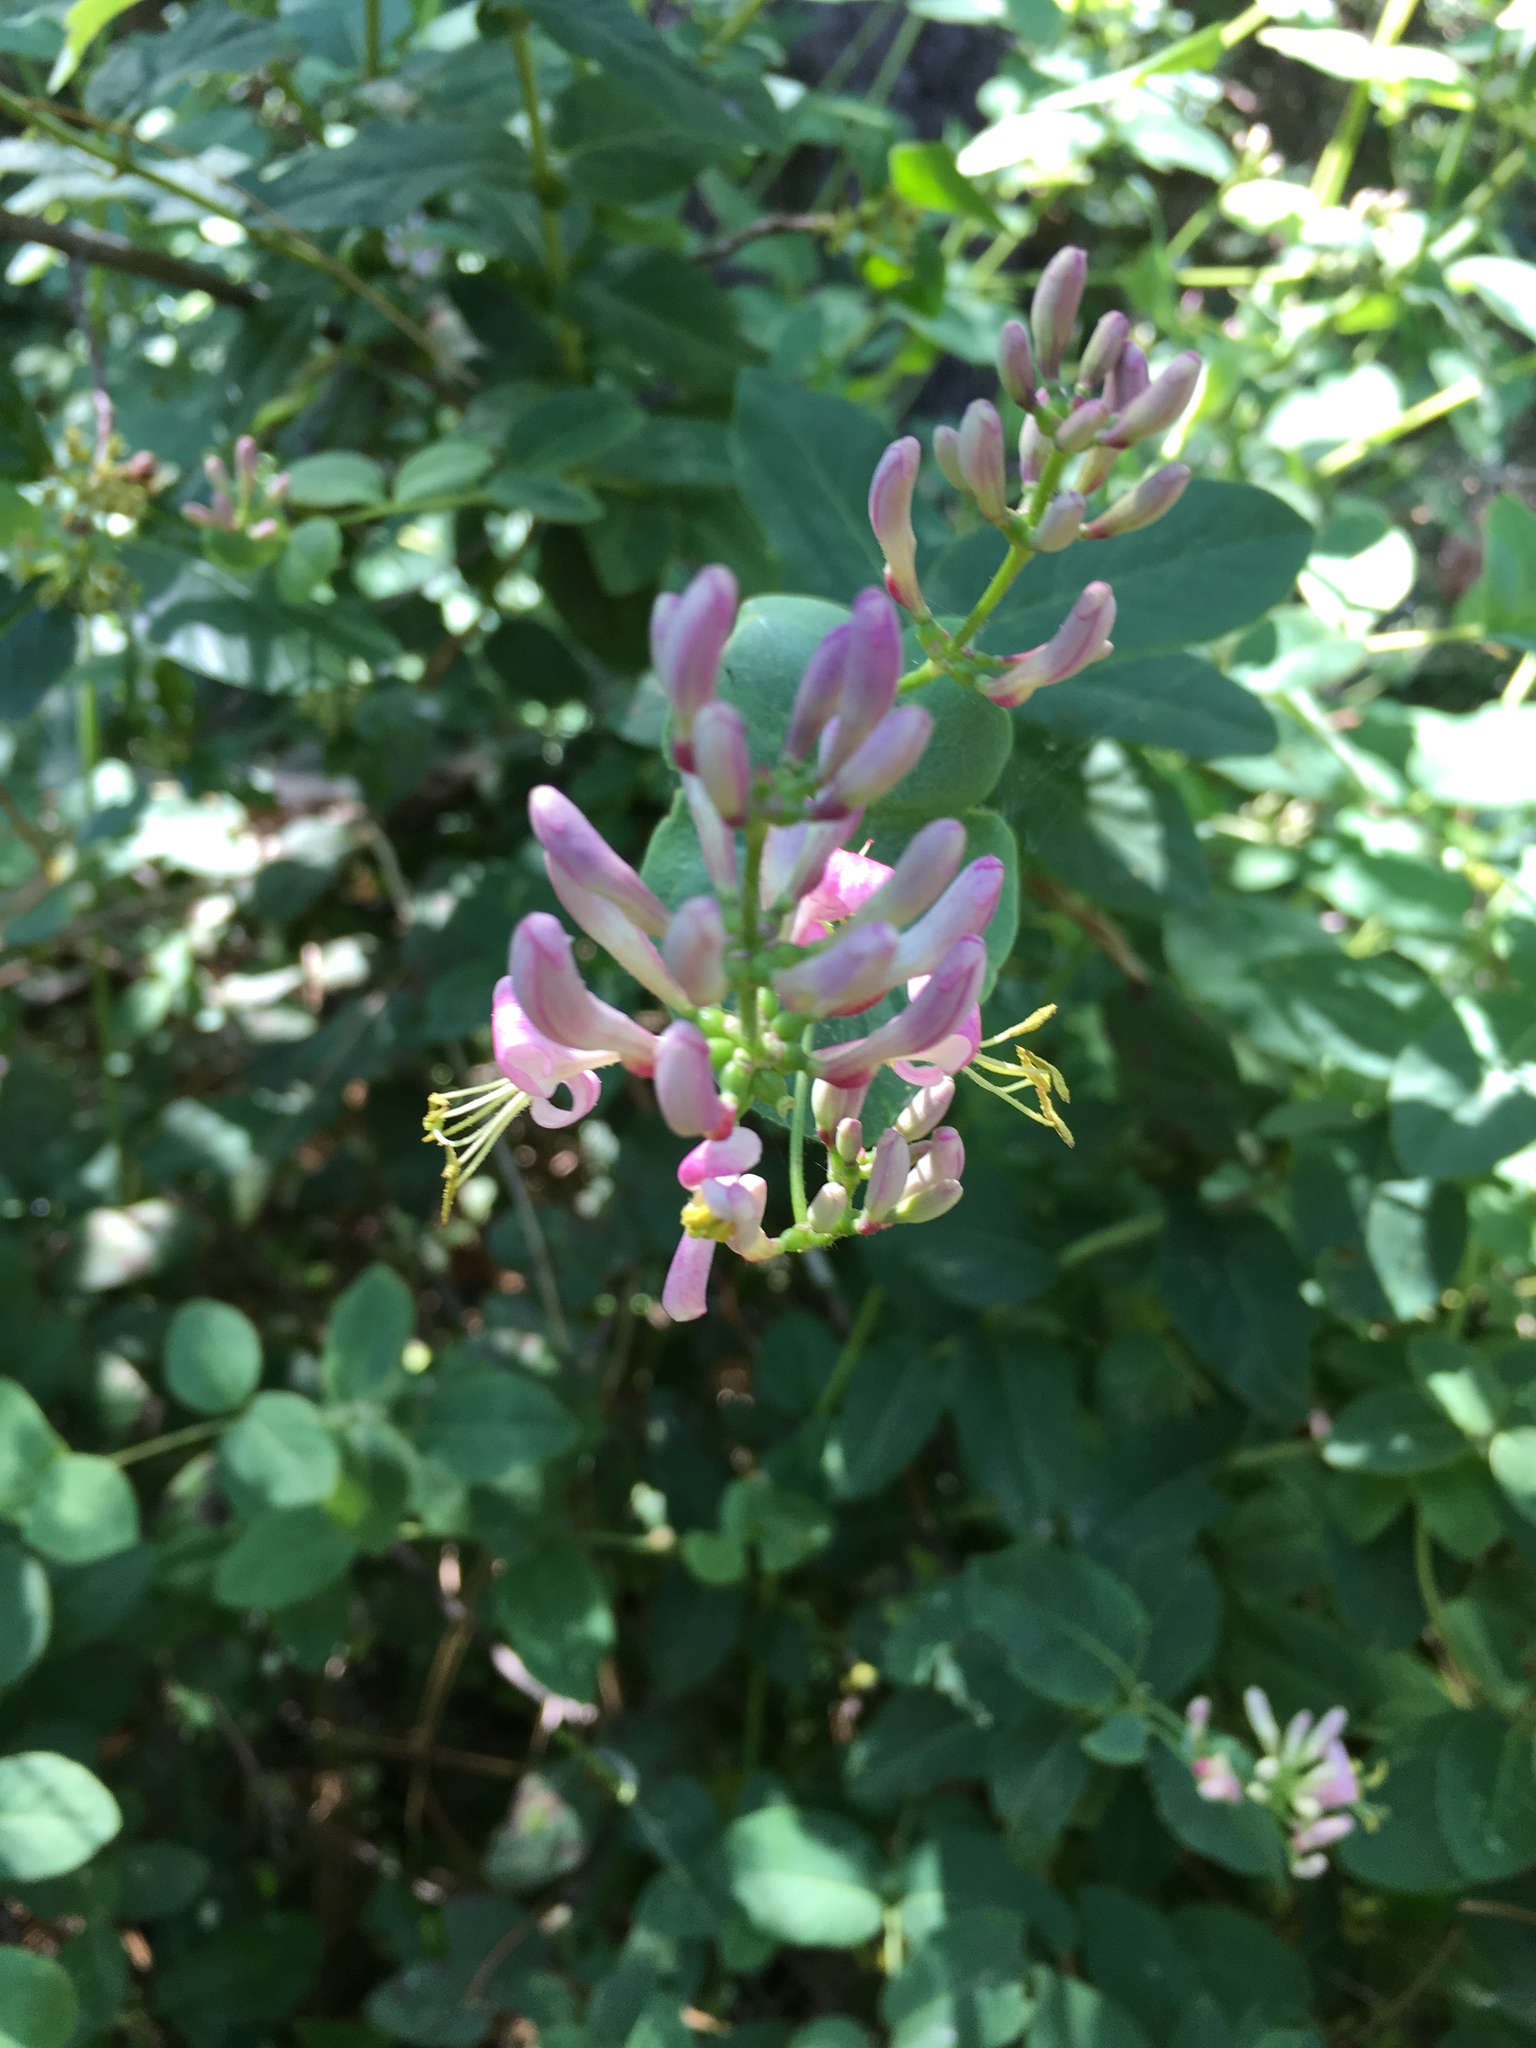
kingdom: Plantae
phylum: Tracheophyta
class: Magnoliopsida
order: Dipsacales
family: Caprifoliaceae
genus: Lonicera
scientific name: Lonicera hispidula
